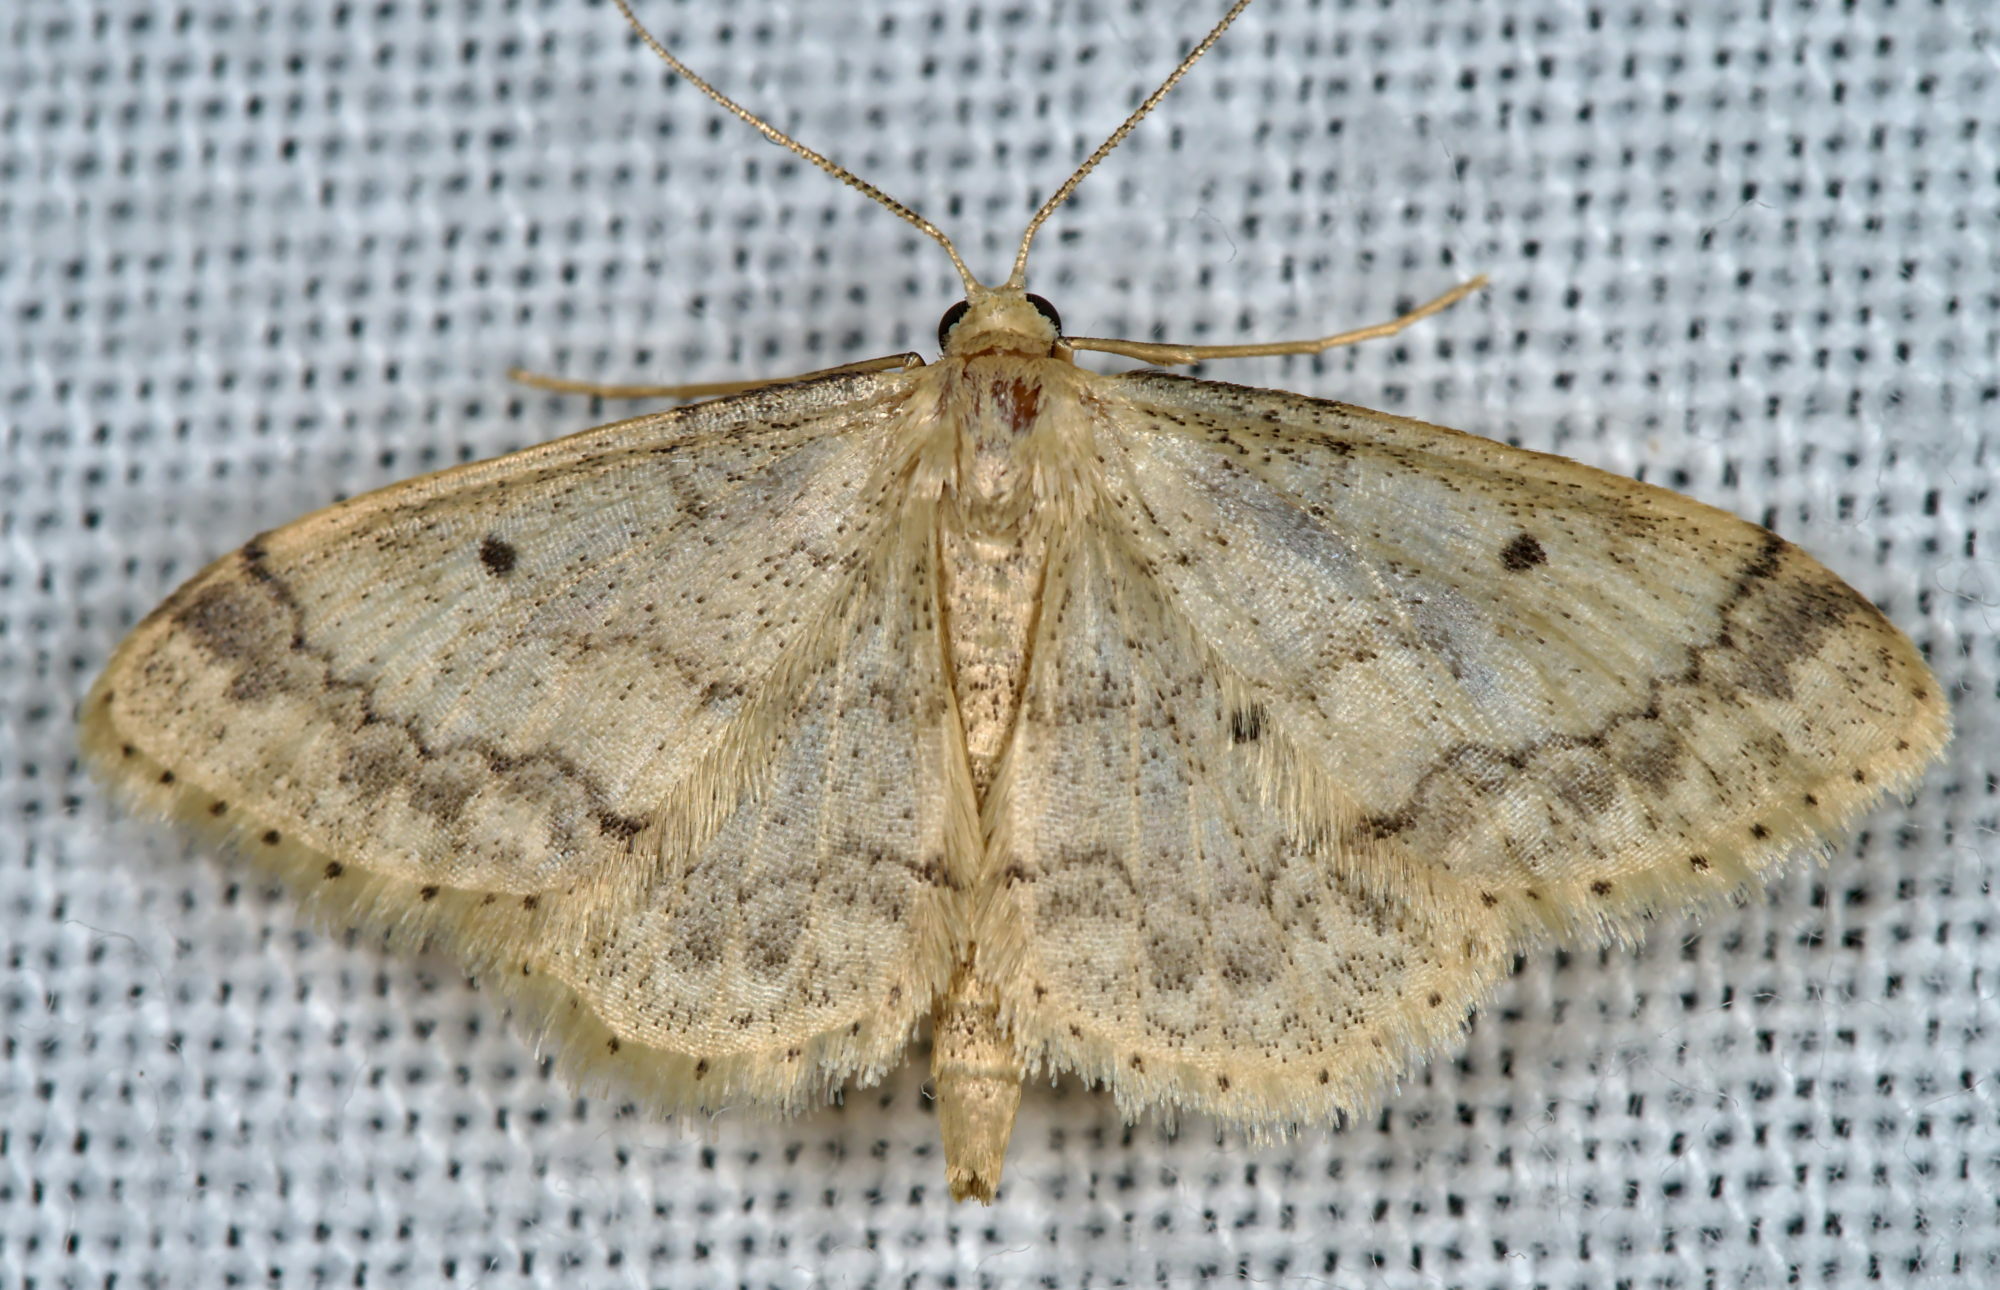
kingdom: Animalia
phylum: Arthropoda
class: Insecta
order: Lepidoptera
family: Geometridae
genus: Idaea
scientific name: Idaea biselata
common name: Small fan-footed wave
